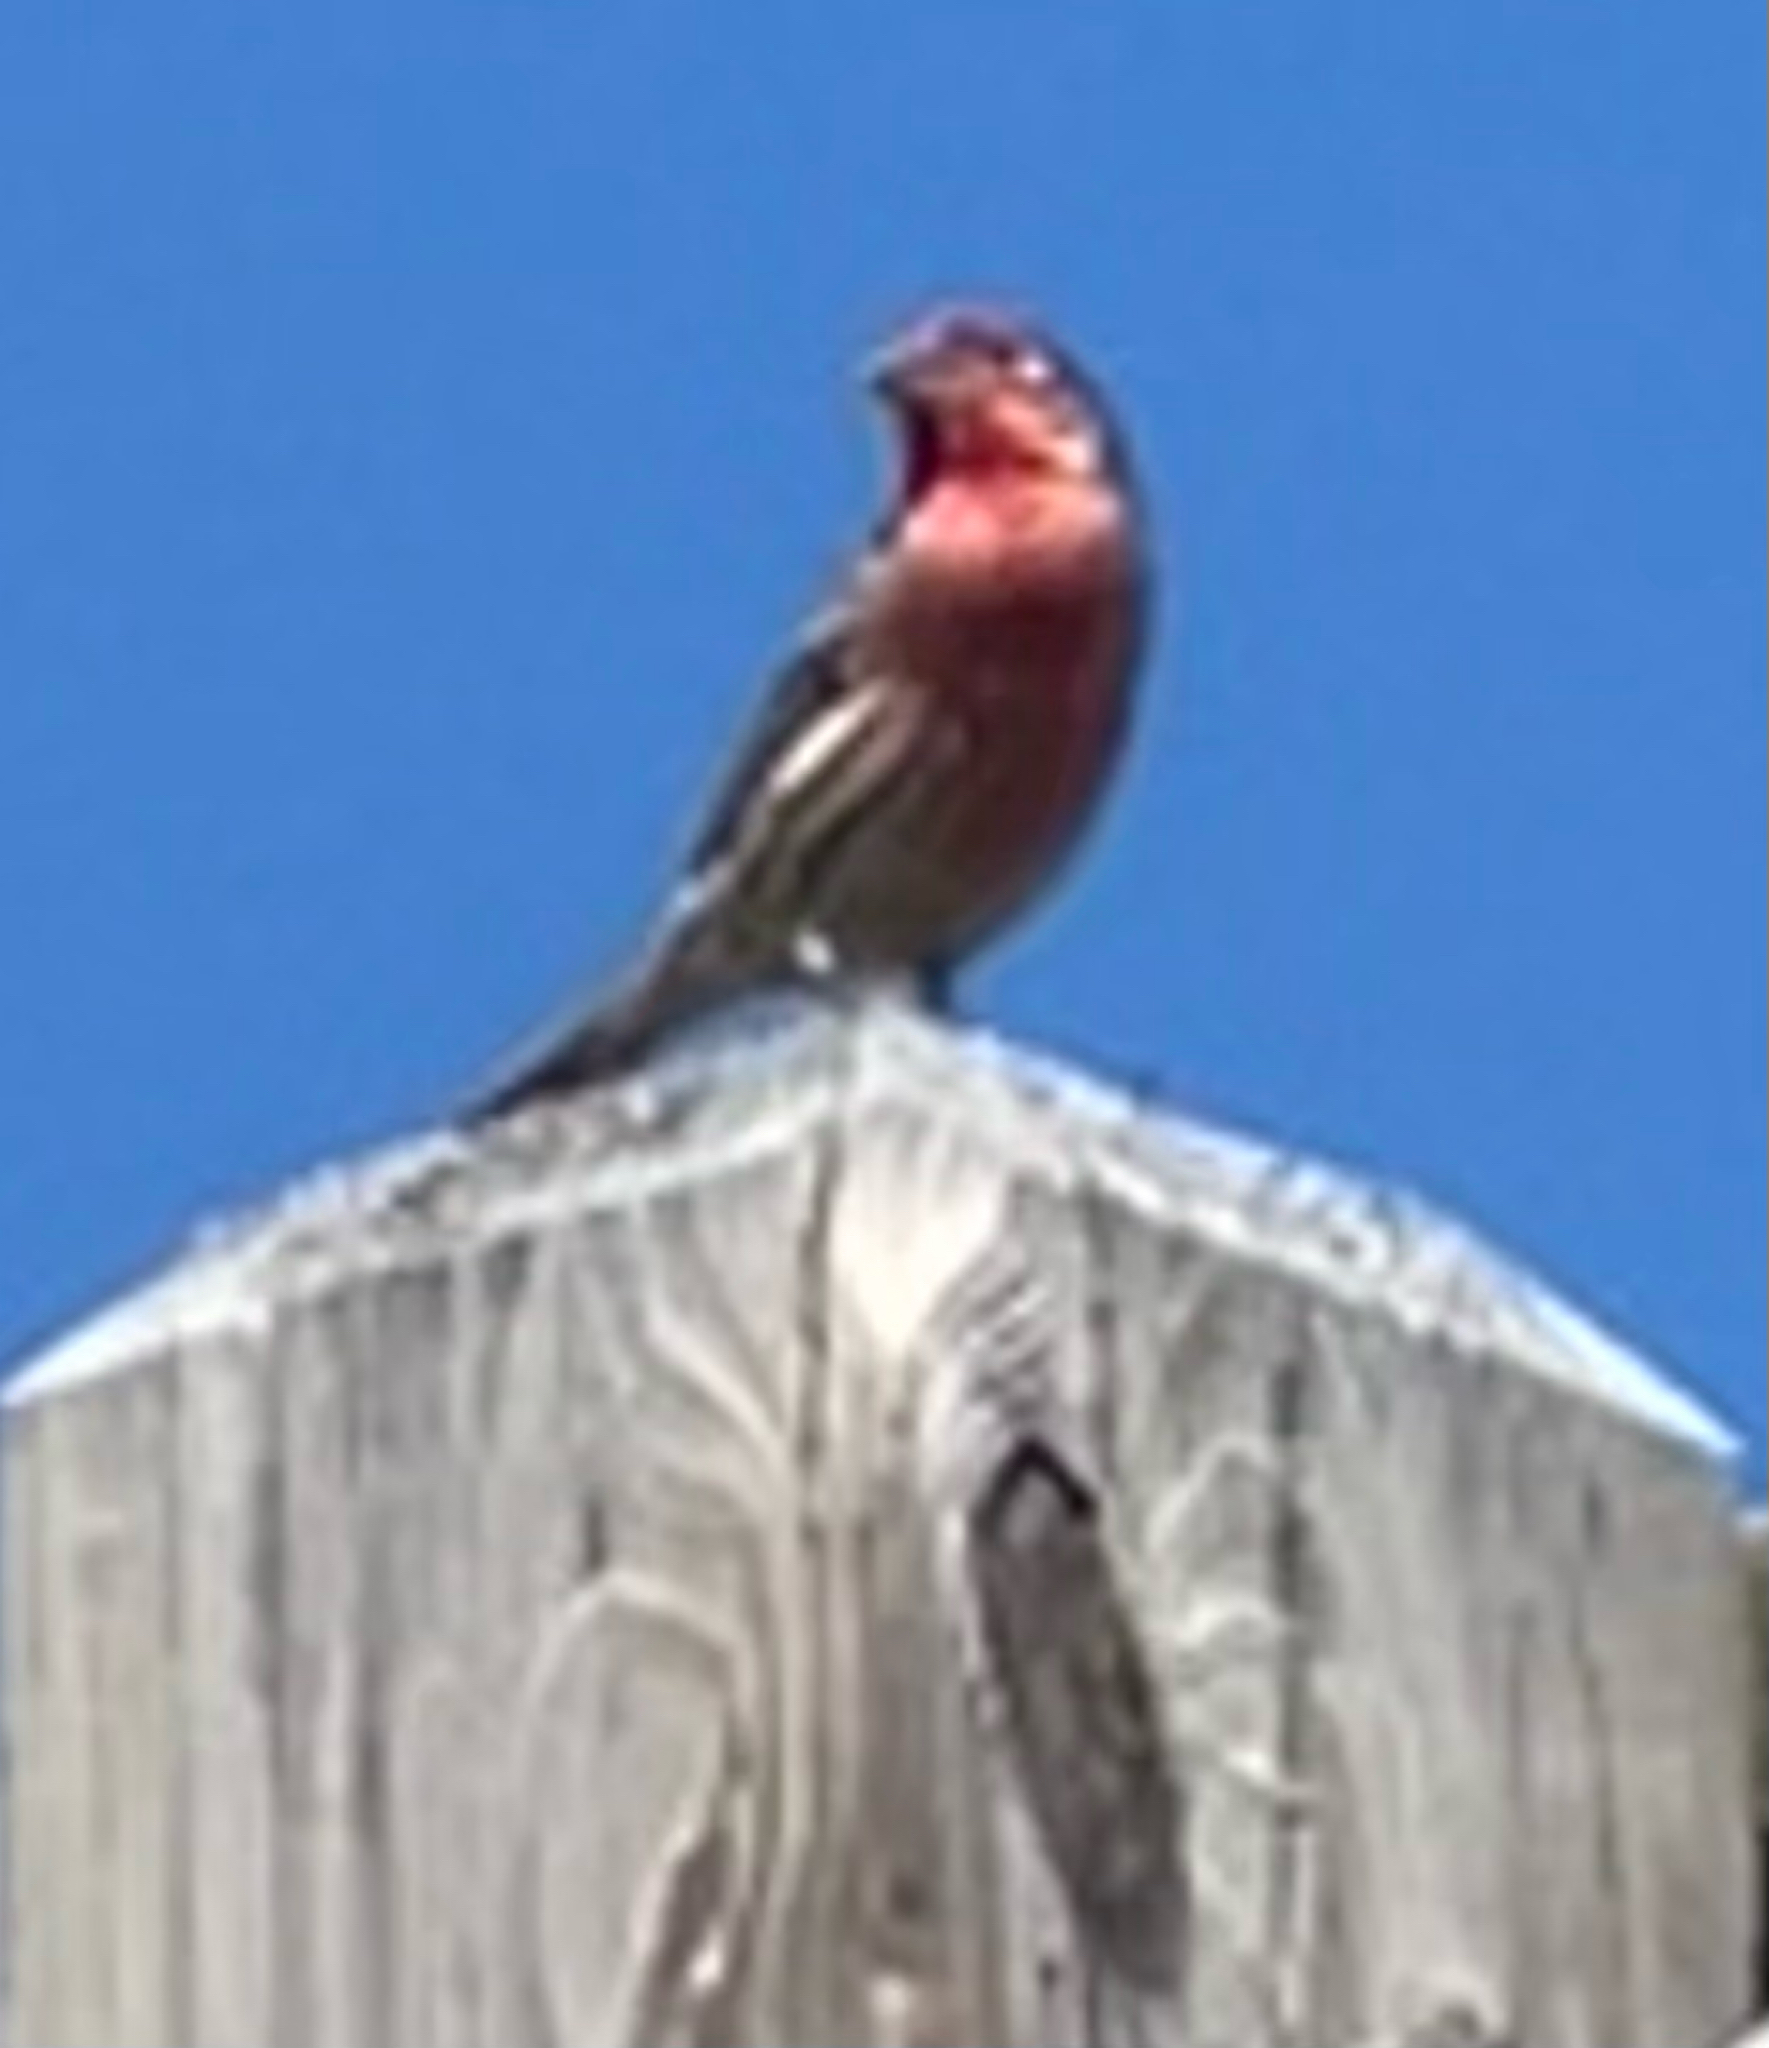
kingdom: Animalia
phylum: Chordata
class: Aves
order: Passeriformes
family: Fringillidae
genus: Haemorhous
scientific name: Haemorhous mexicanus
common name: House finch
